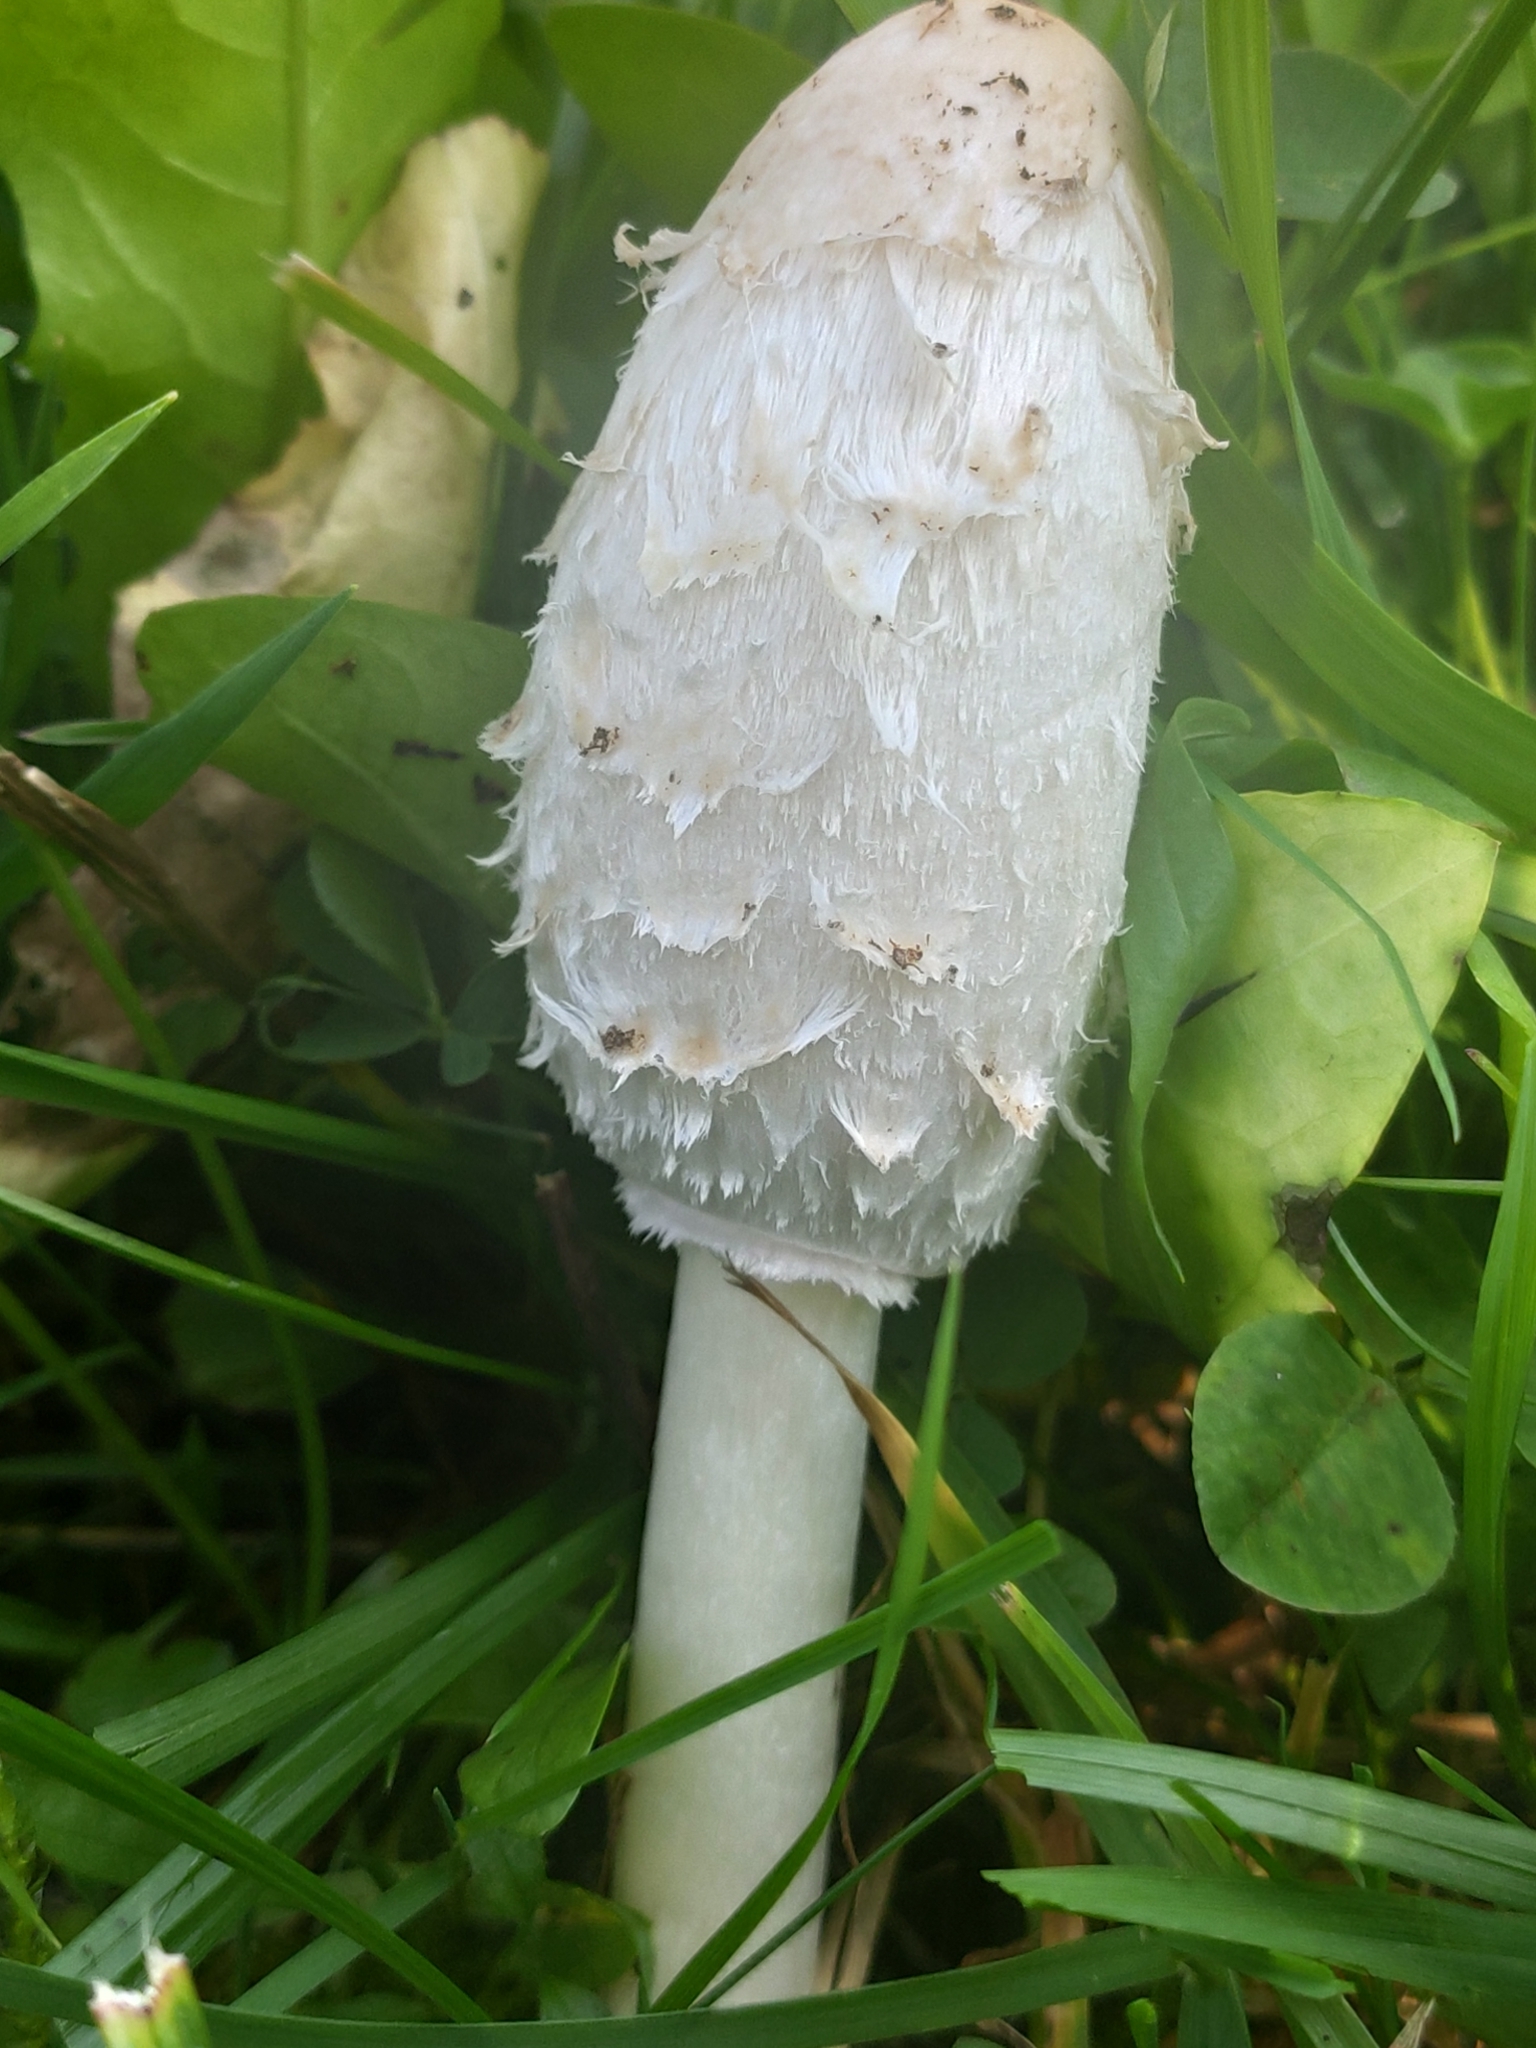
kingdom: Fungi
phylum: Basidiomycota
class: Agaricomycetes
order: Agaricales
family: Agaricaceae
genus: Coprinus
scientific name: Coprinus comatus
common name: Lawyer's wig
